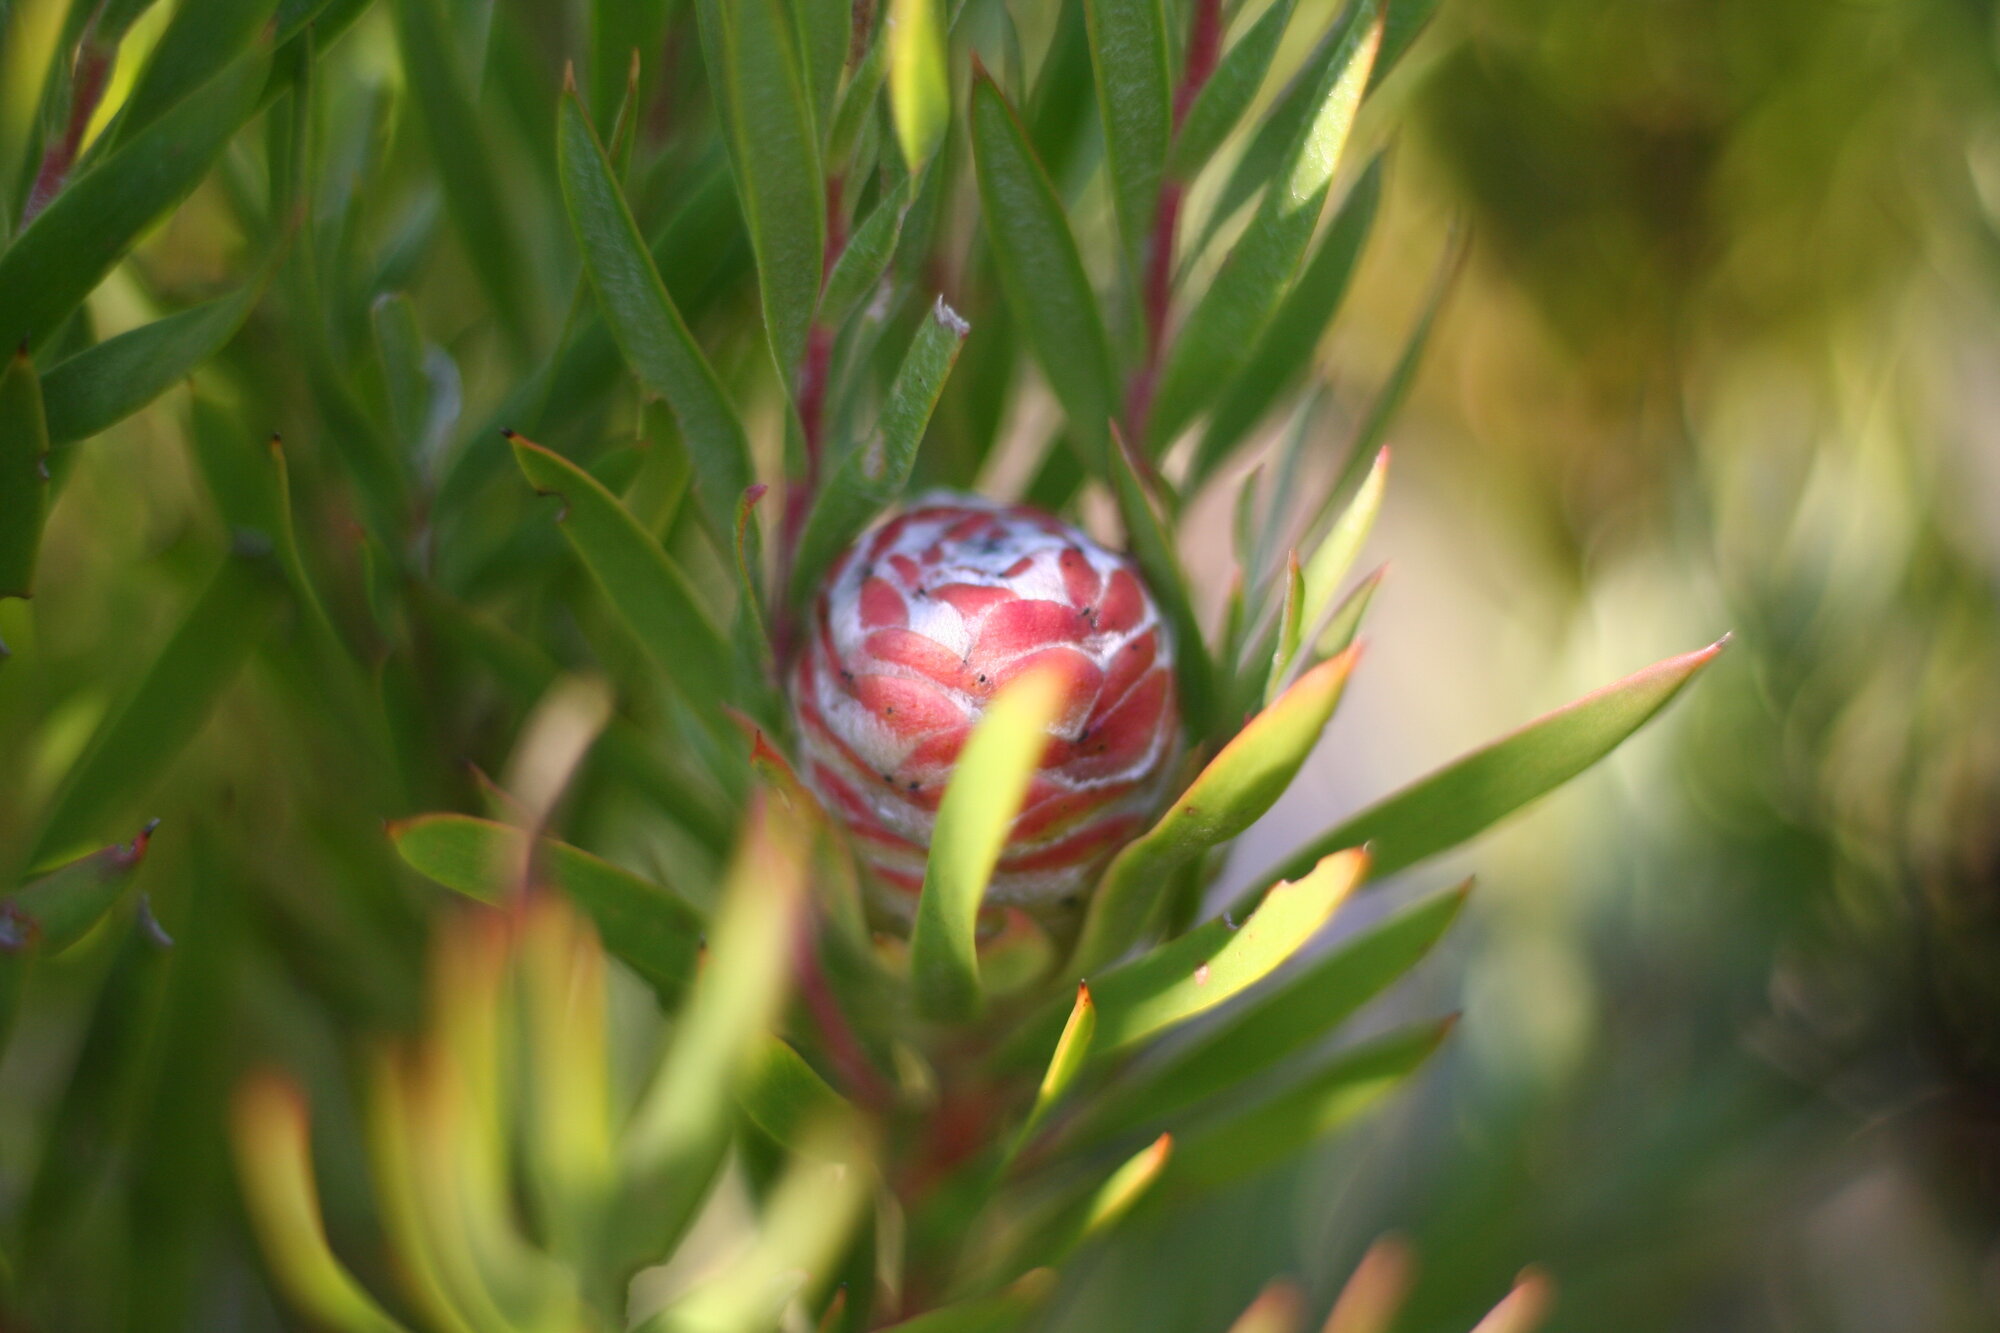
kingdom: Plantae
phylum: Tracheophyta
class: Magnoliopsida
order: Proteales
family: Proteaceae
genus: Leucadendron
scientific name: Leucadendron xanthoconus
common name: Sickle-leaf conebush
